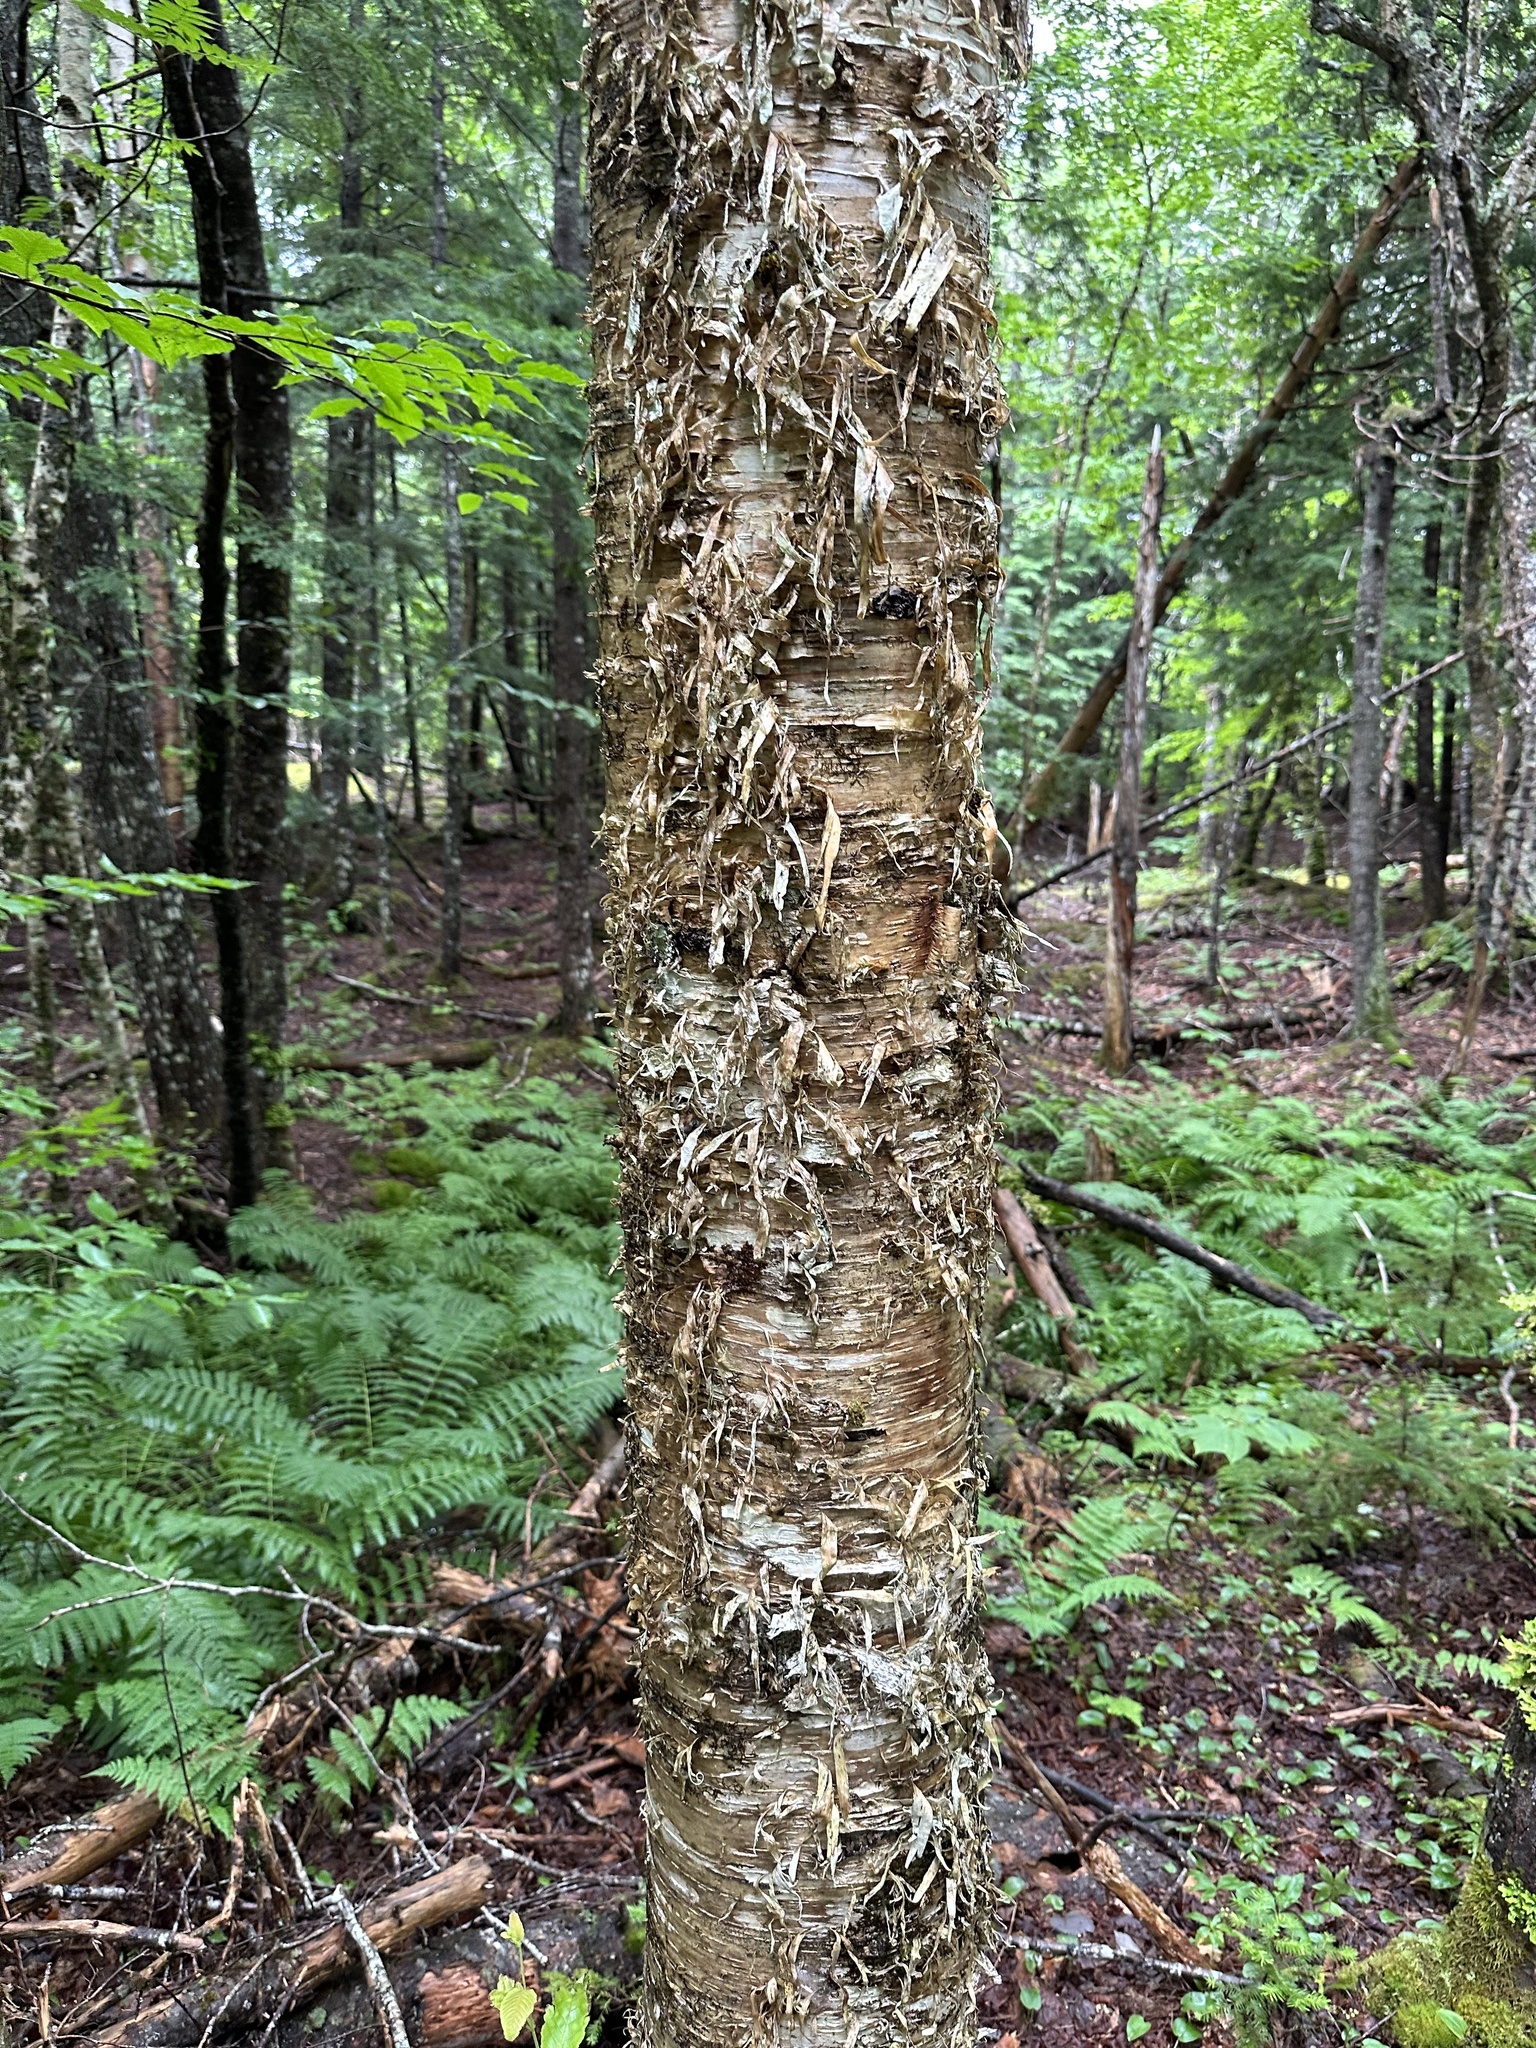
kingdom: Plantae
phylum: Tracheophyta
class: Magnoliopsida
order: Fagales
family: Betulaceae
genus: Betula
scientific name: Betula alleghaniensis
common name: Yellow birch
